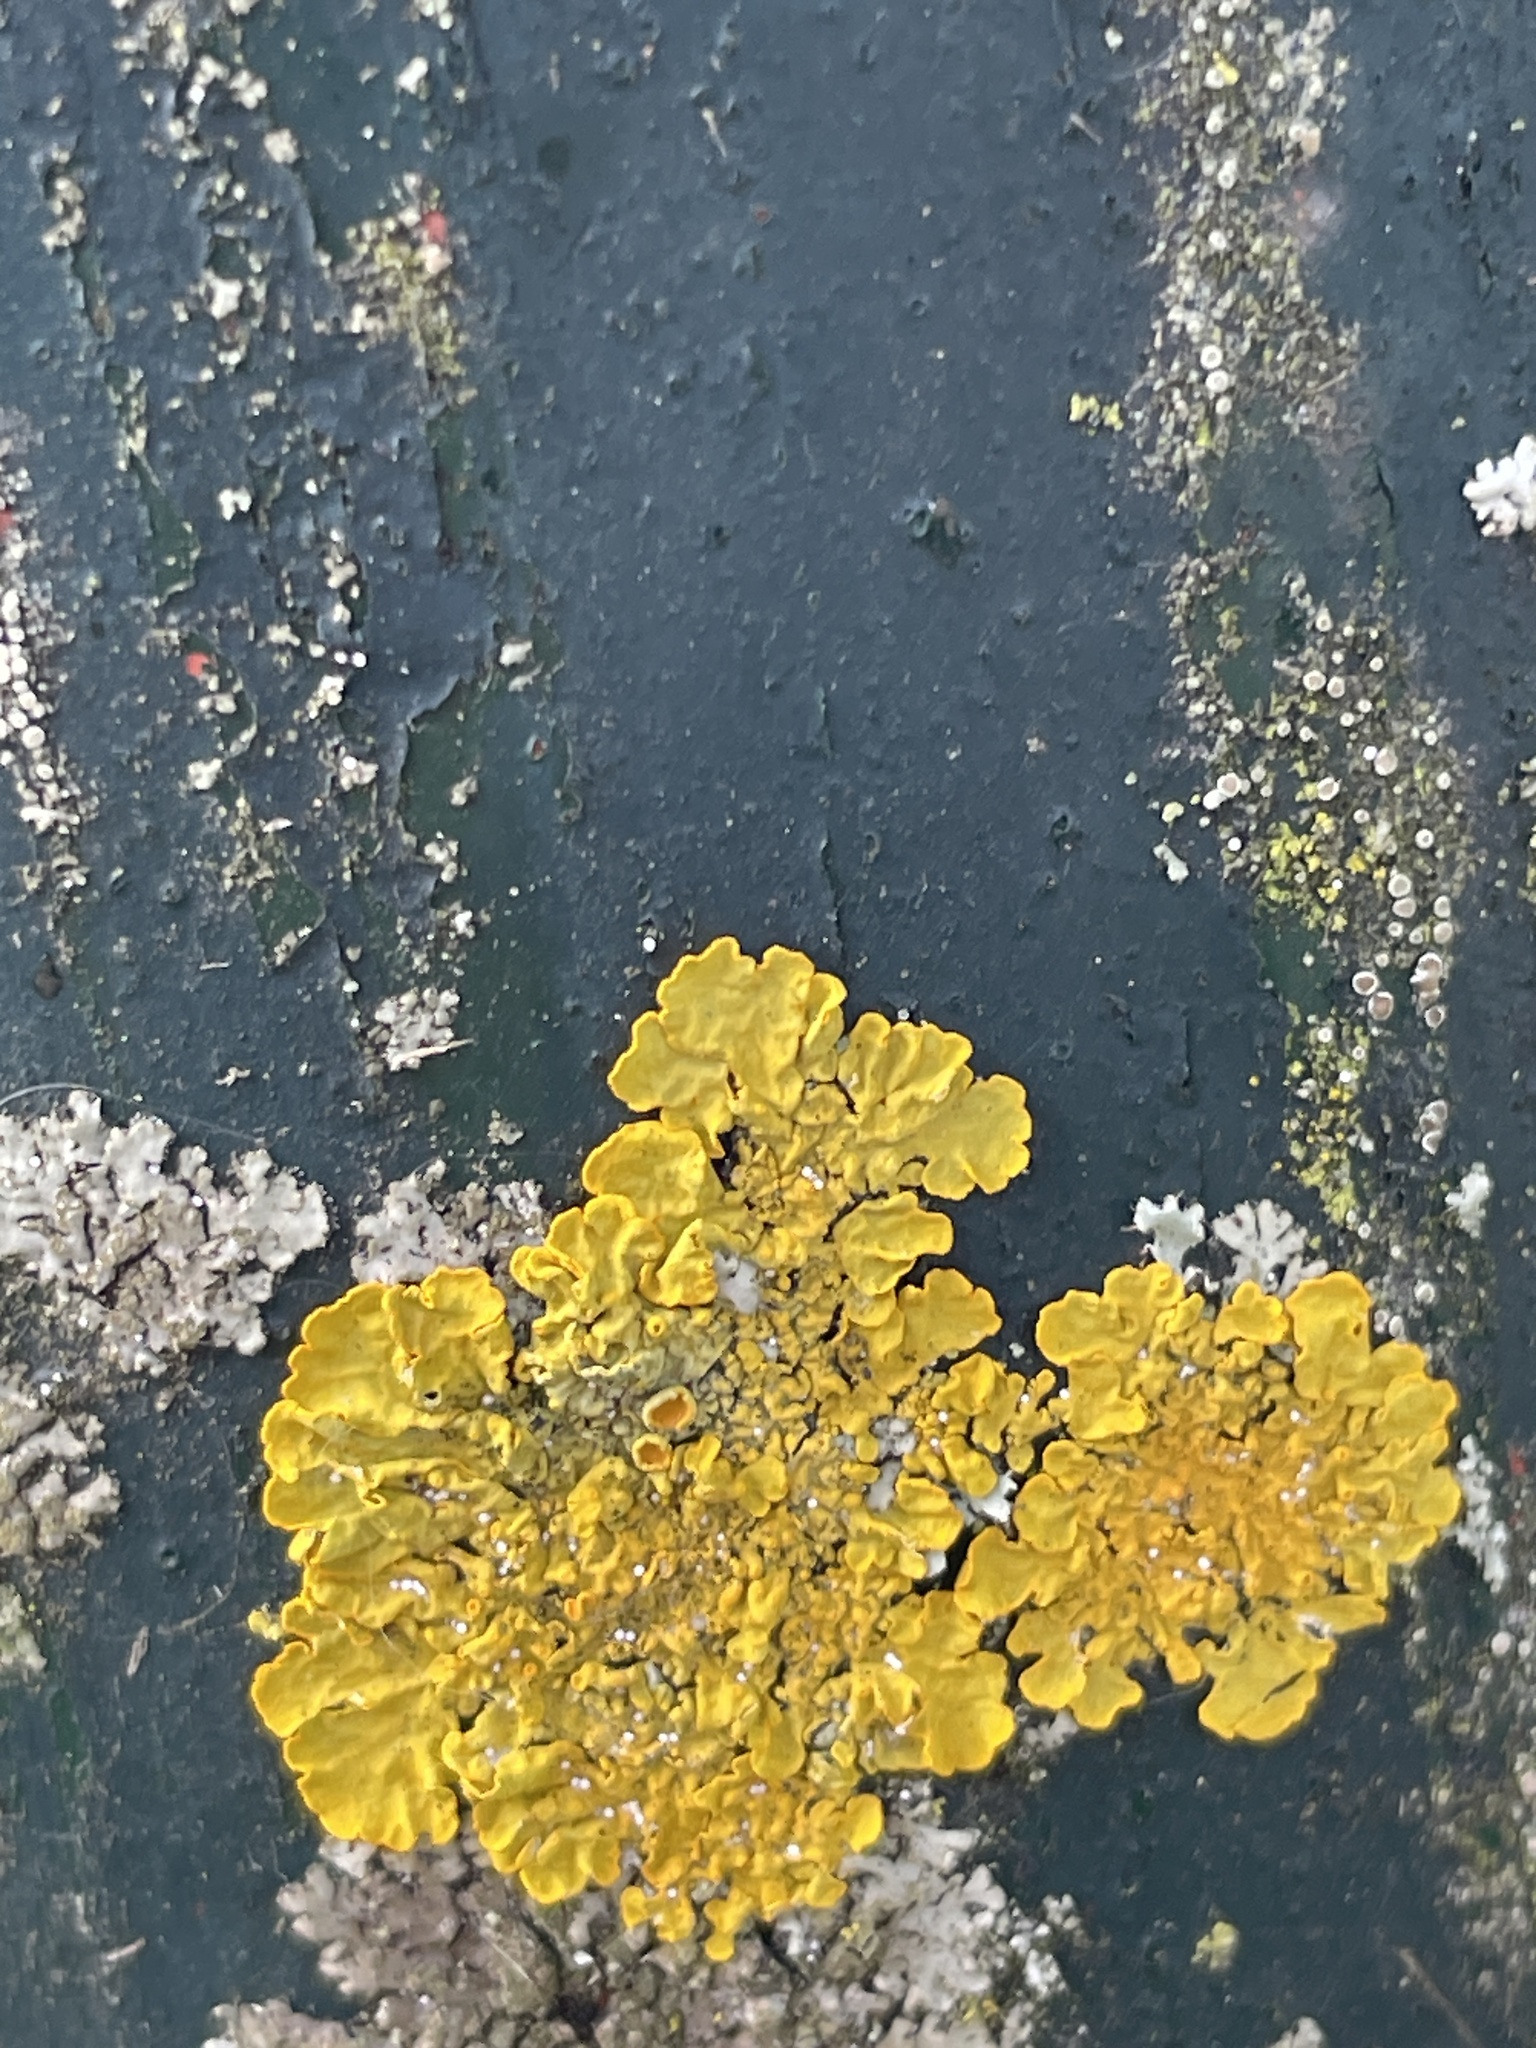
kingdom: Fungi
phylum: Ascomycota
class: Lecanoromycetes
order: Teloschistales
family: Teloschistaceae
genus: Xanthoria
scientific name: Xanthoria parietina
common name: Common orange lichen
